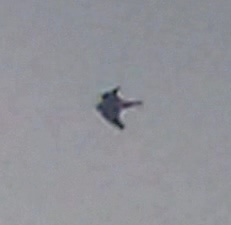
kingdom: Animalia
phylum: Chordata
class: Aves
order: Falconiformes
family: Falconidae
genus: Falco
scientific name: Falco peregrinus
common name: Peregrine falcon
